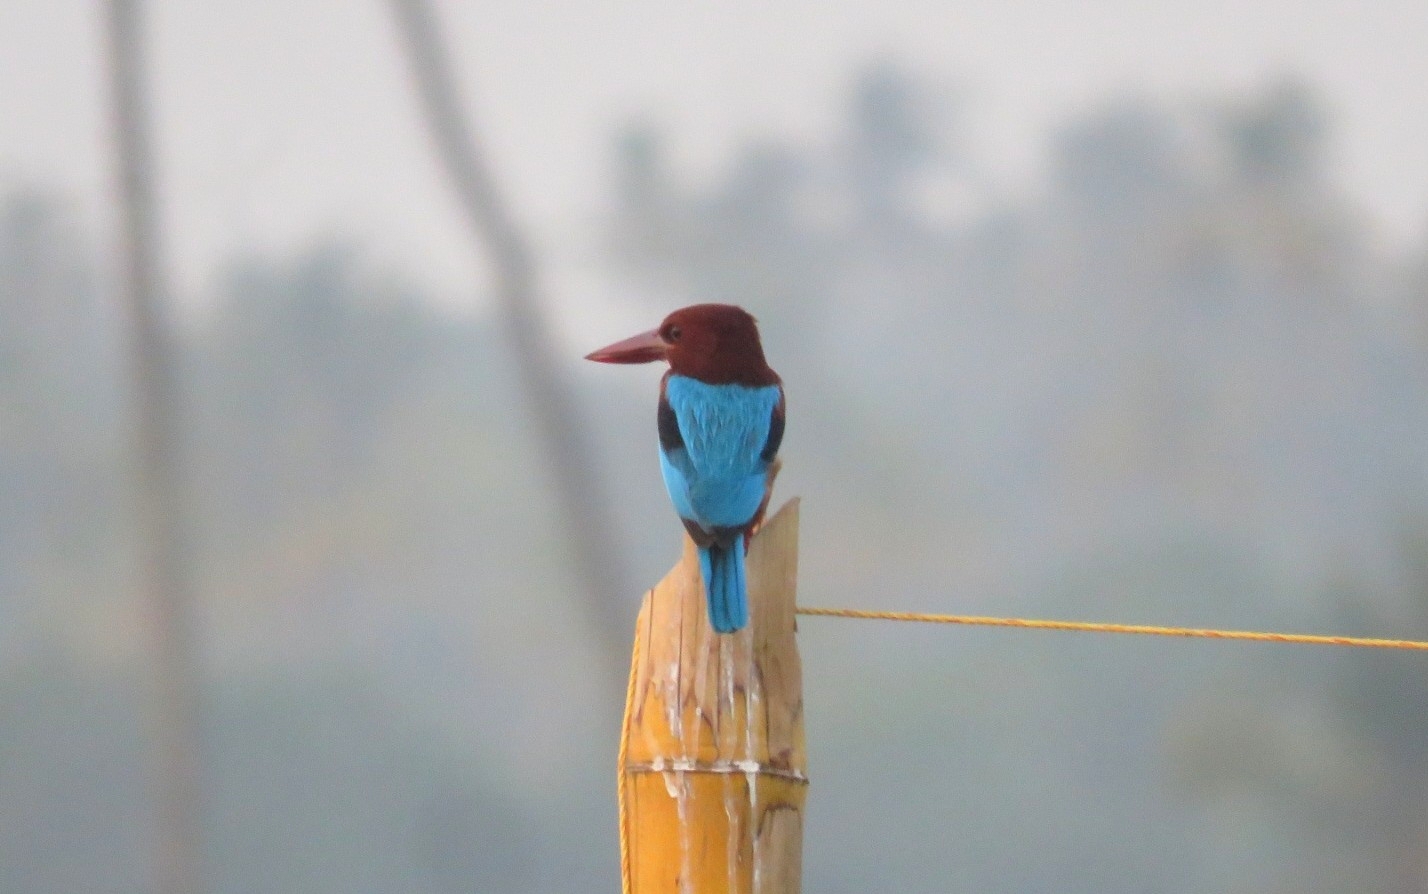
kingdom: Animalia
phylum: Chordata
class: Aves
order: Coraciiformes
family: Alcedinidae
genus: Halcyon
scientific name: Halcyon smyrnensis
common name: White-throated kingfisher
